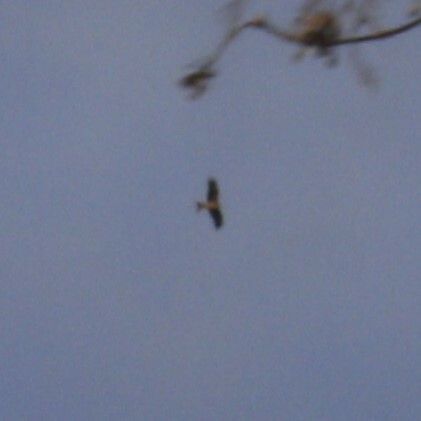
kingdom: Animalia
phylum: Chordata
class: Aves
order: Accipitriformes
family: Accipitridae
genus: Milvus
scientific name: Milvus milvus
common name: Red kite
